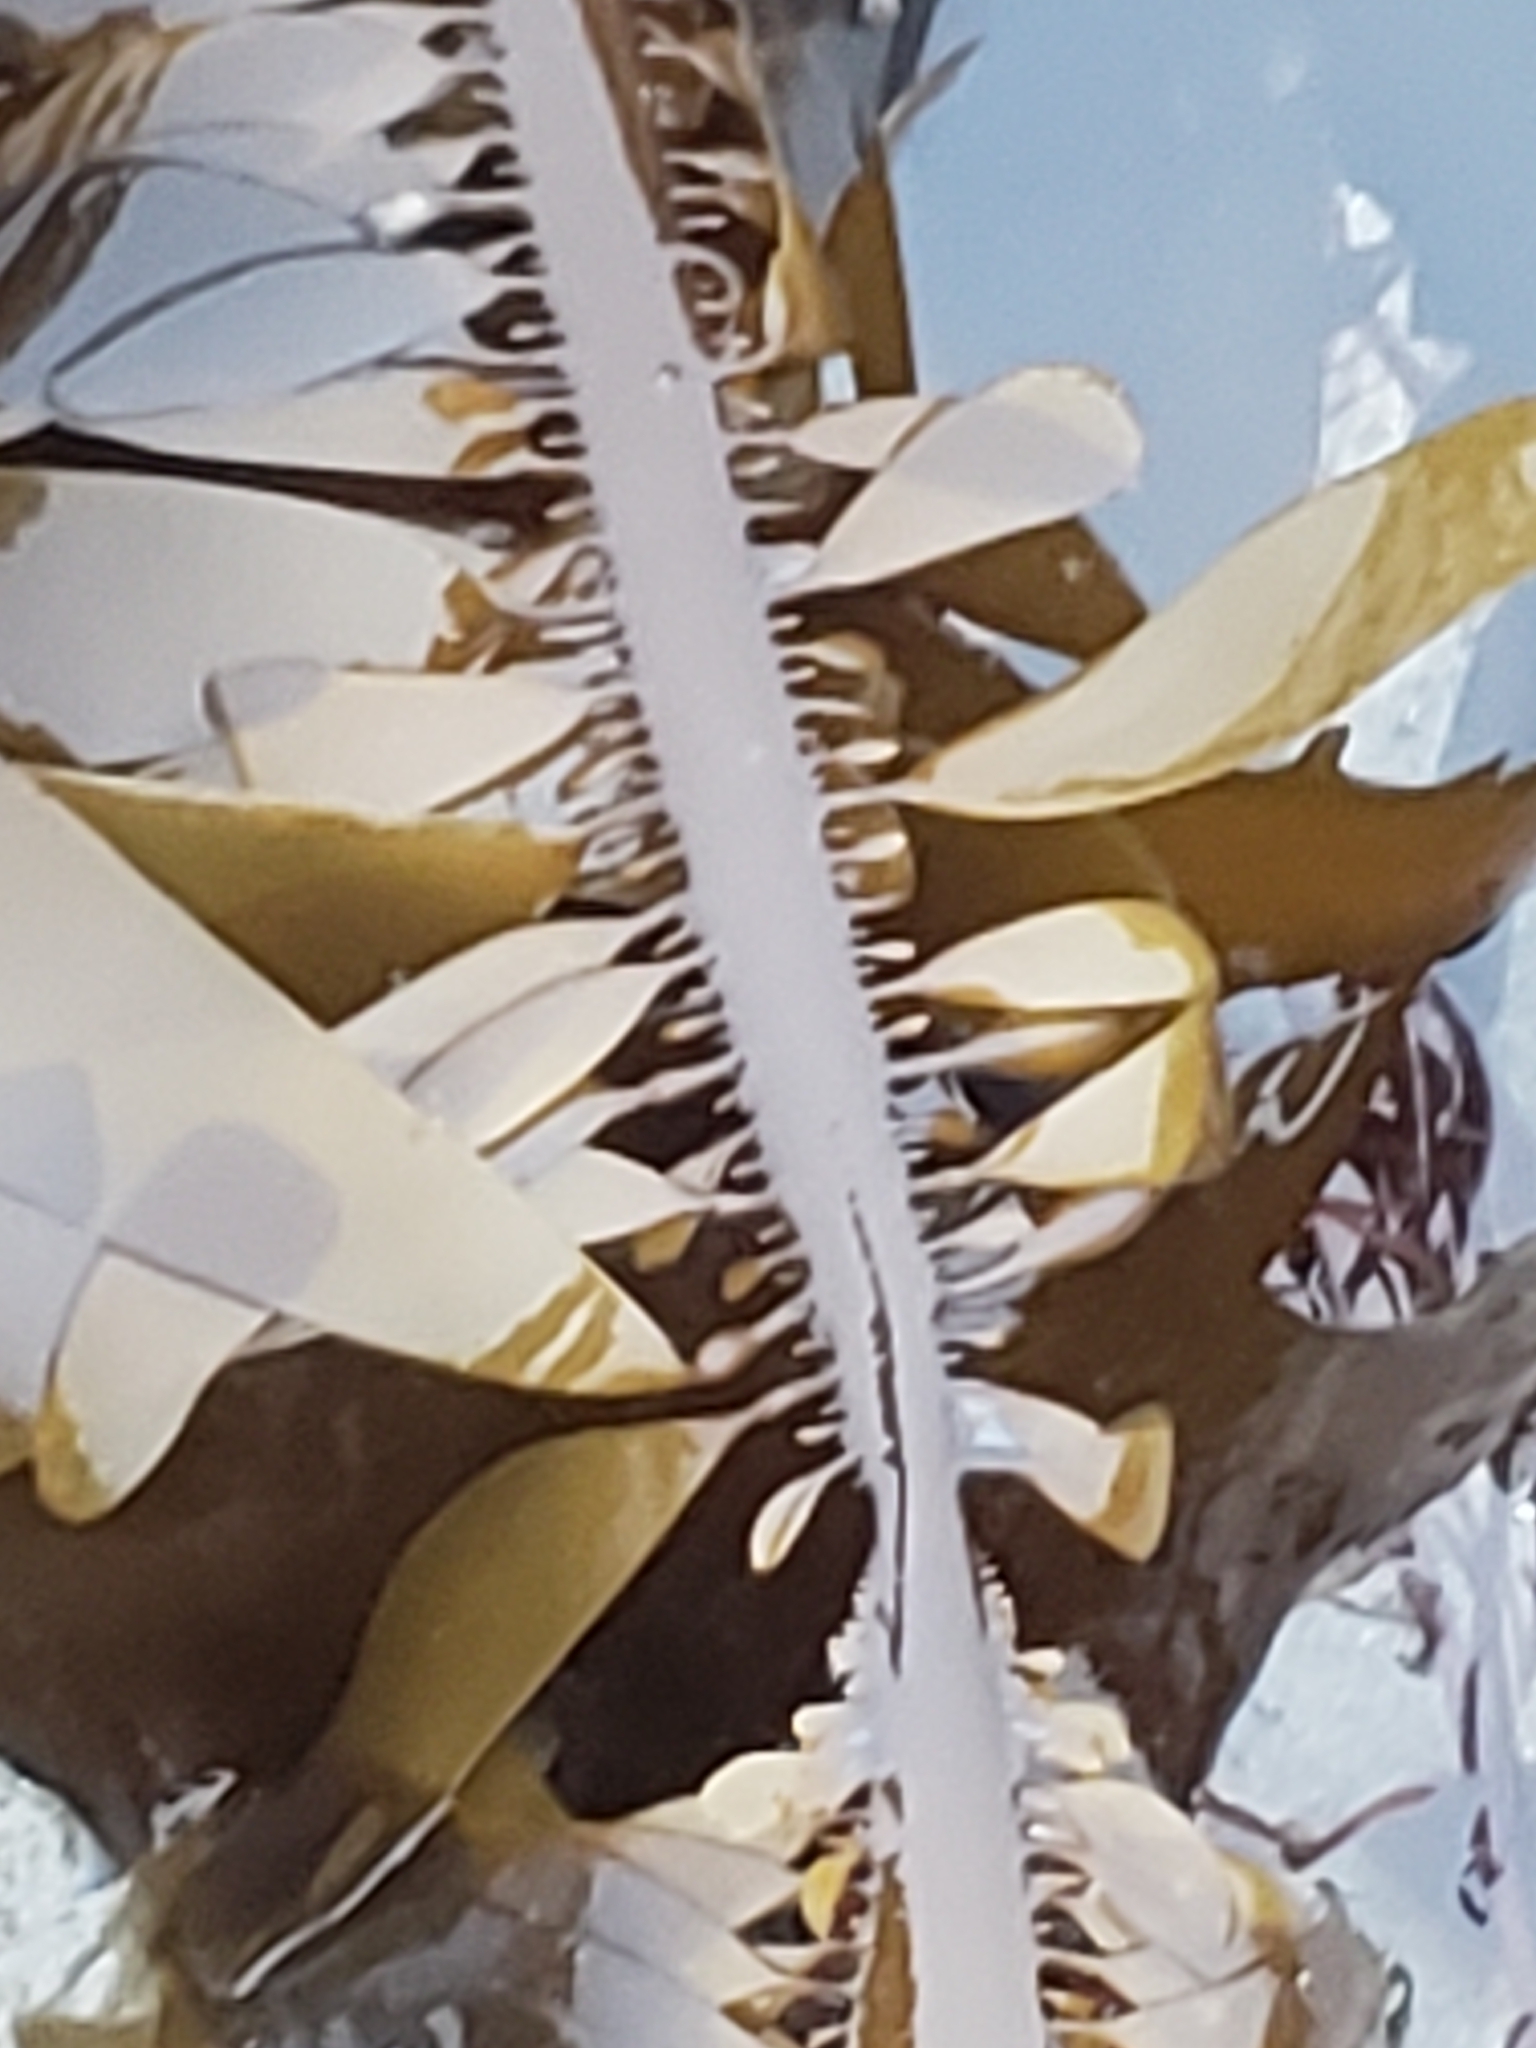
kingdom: Chromista
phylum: Ochrophyta
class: Phaeophyceae
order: Laminariales
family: Lessoniaceae
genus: Egregia
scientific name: Egregia menziesii
